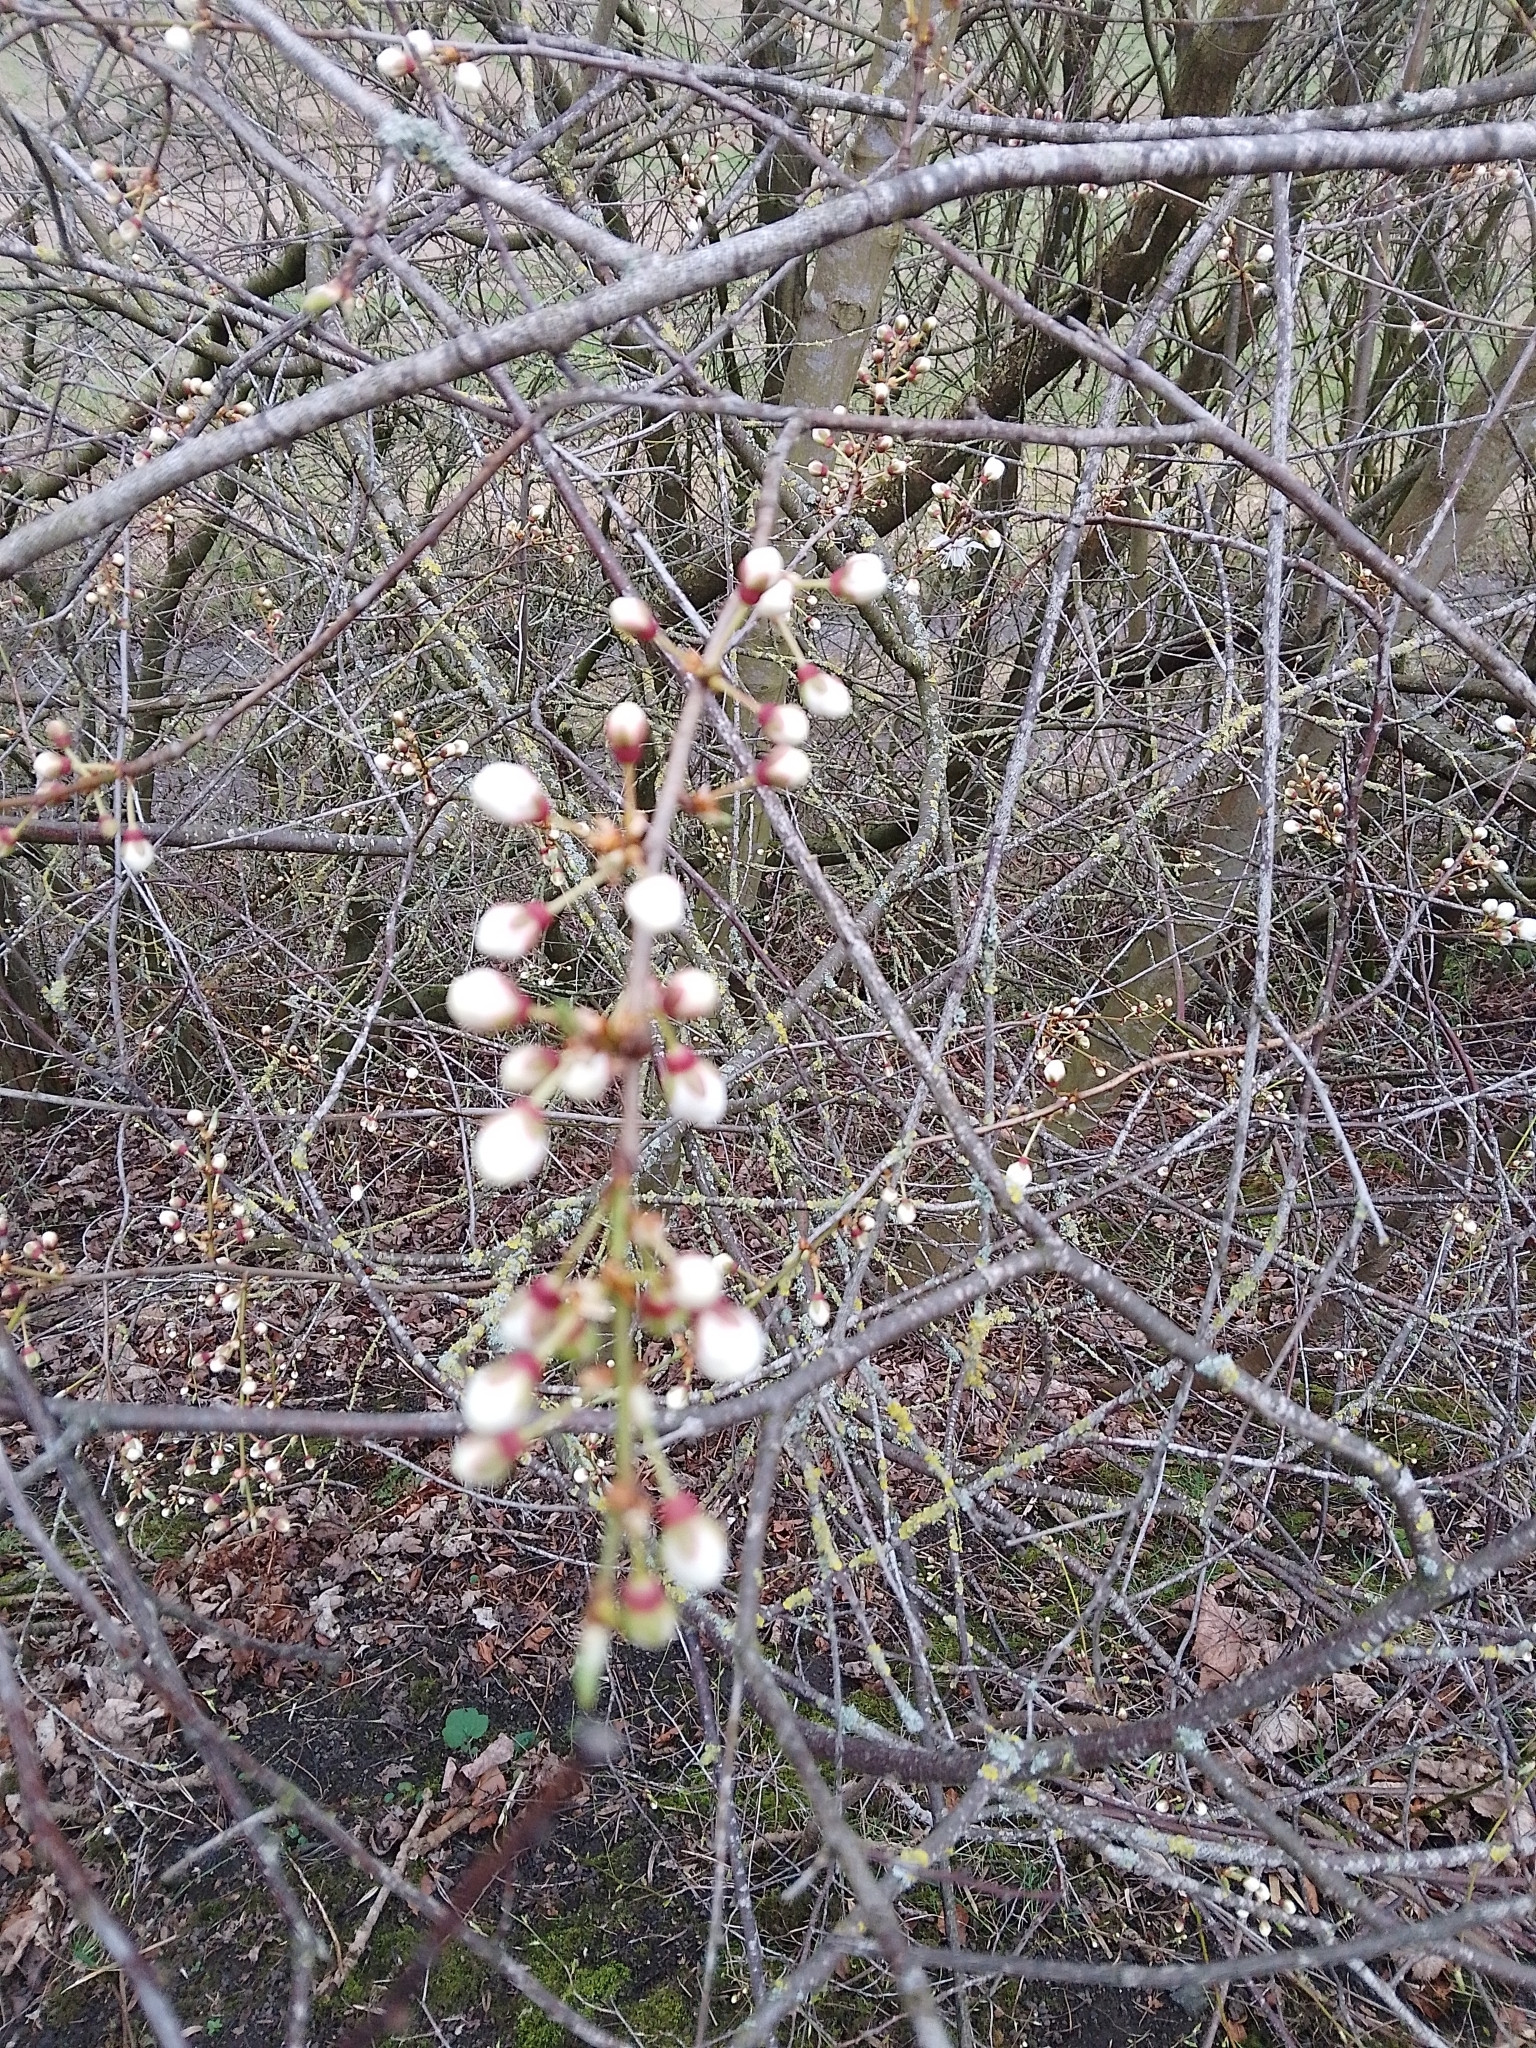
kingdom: Plantae
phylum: Tracheophyta
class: Magnoliopsida
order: Rosales
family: Rosaceae
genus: Prunus
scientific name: Prunus cerasifera
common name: Cherry plum
